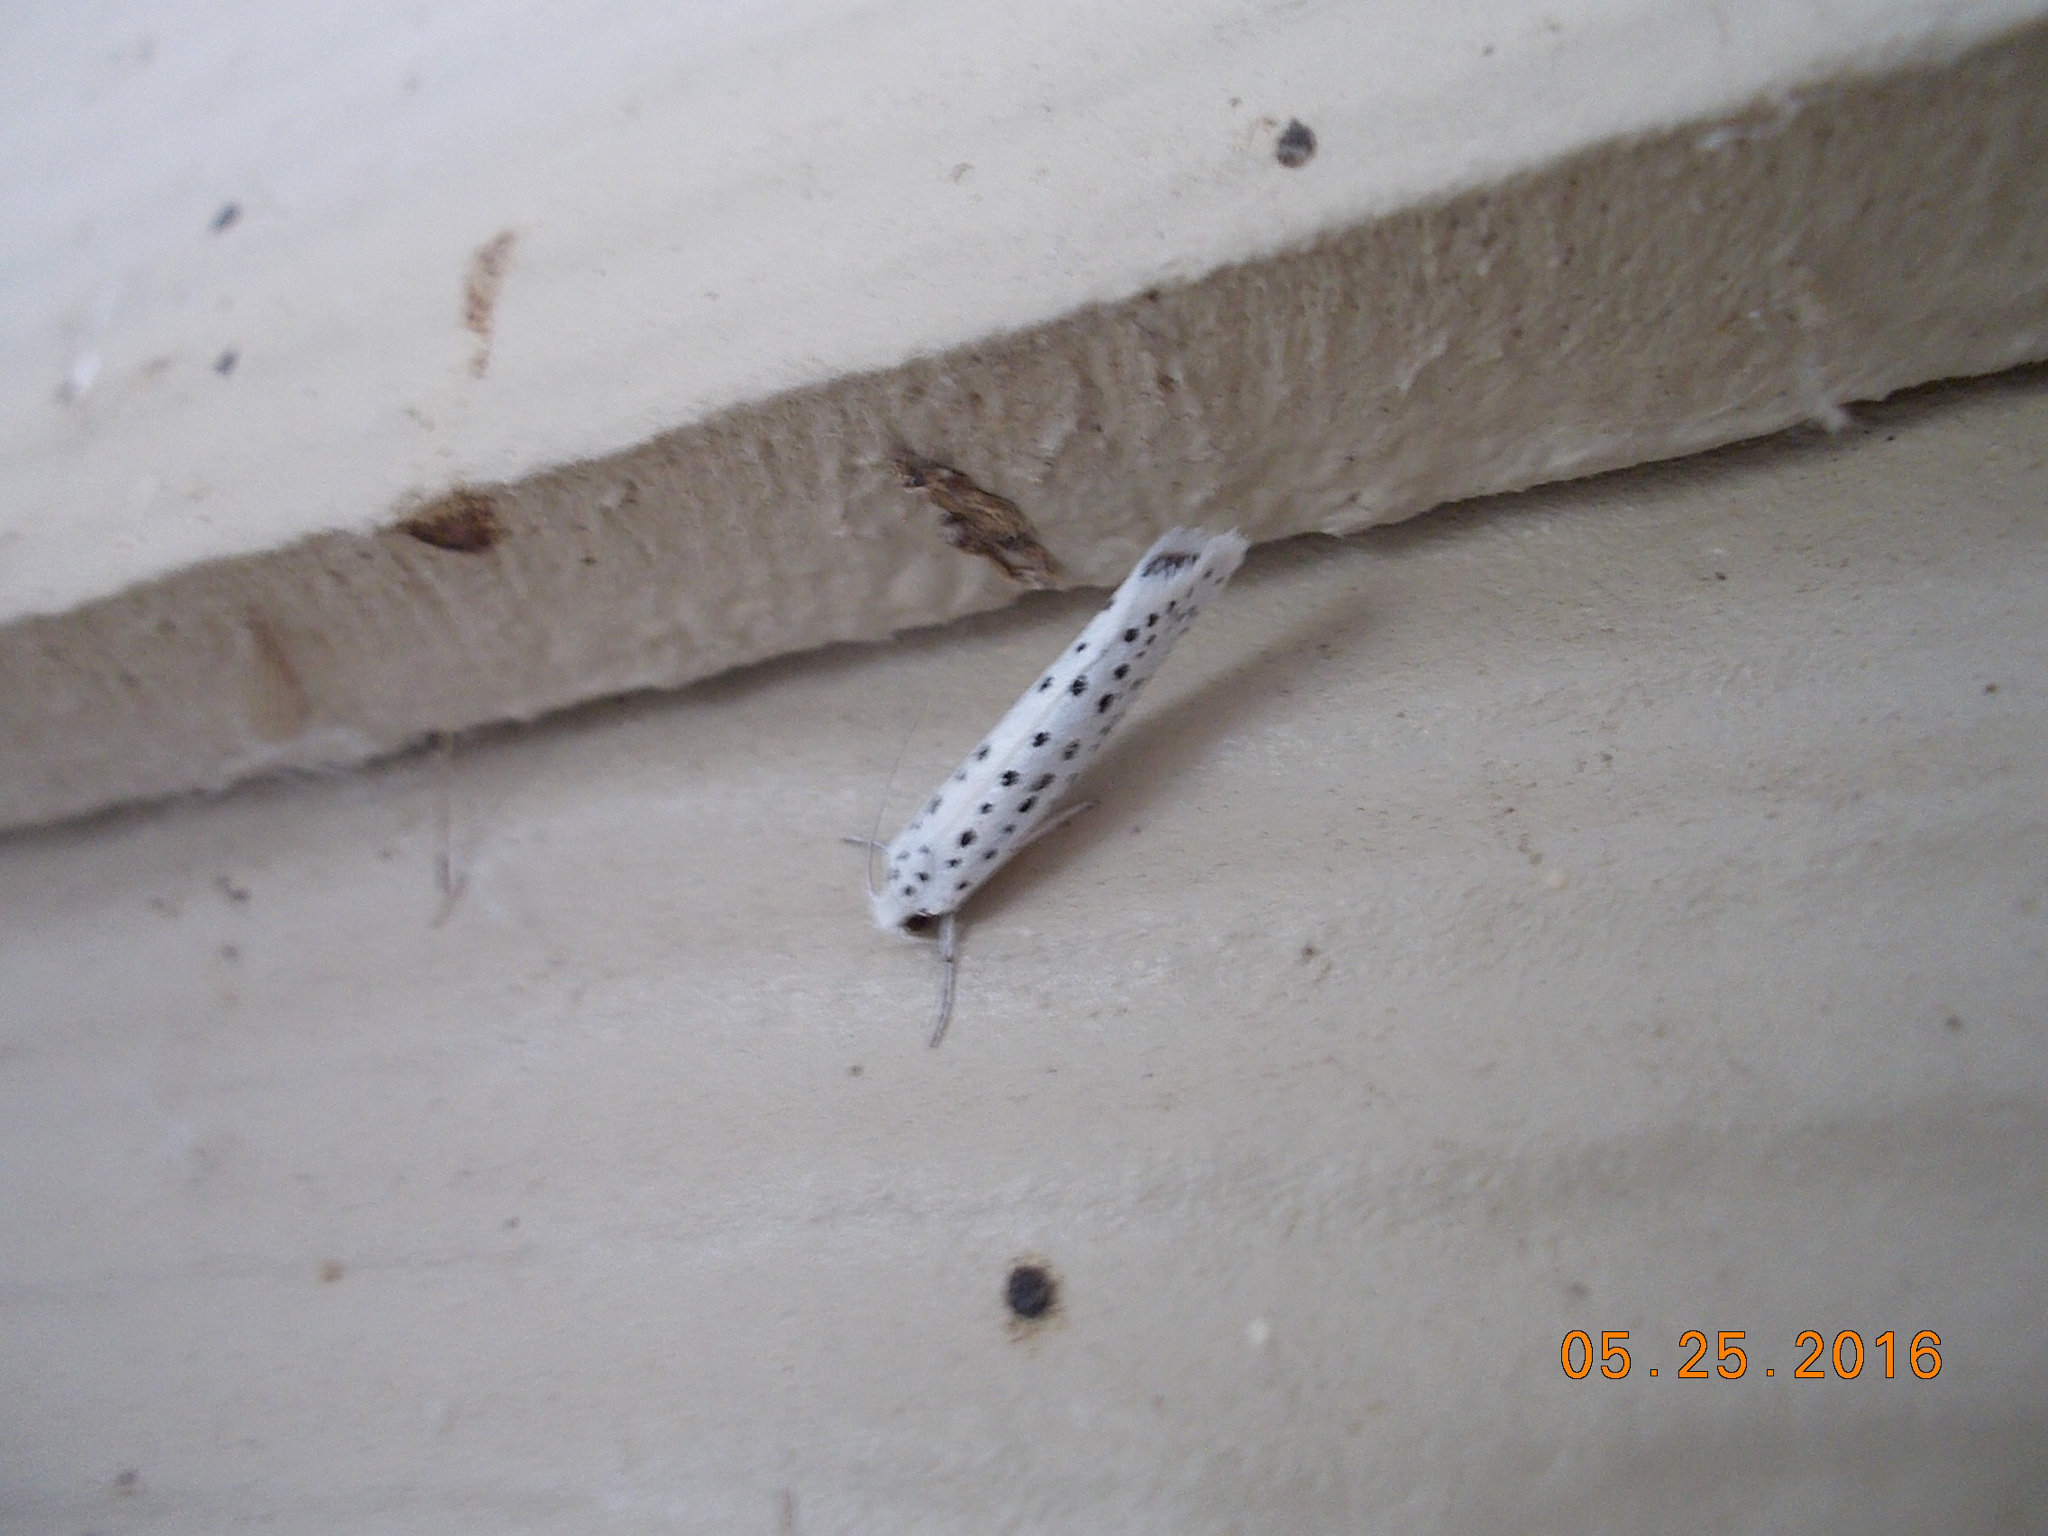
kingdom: Animalia
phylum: Arthropoda
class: Insecta
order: Lepidoptera
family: Yponomeutidae
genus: Yponomeuta
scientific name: Yponomeuta multipunctella
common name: American ermine moth
